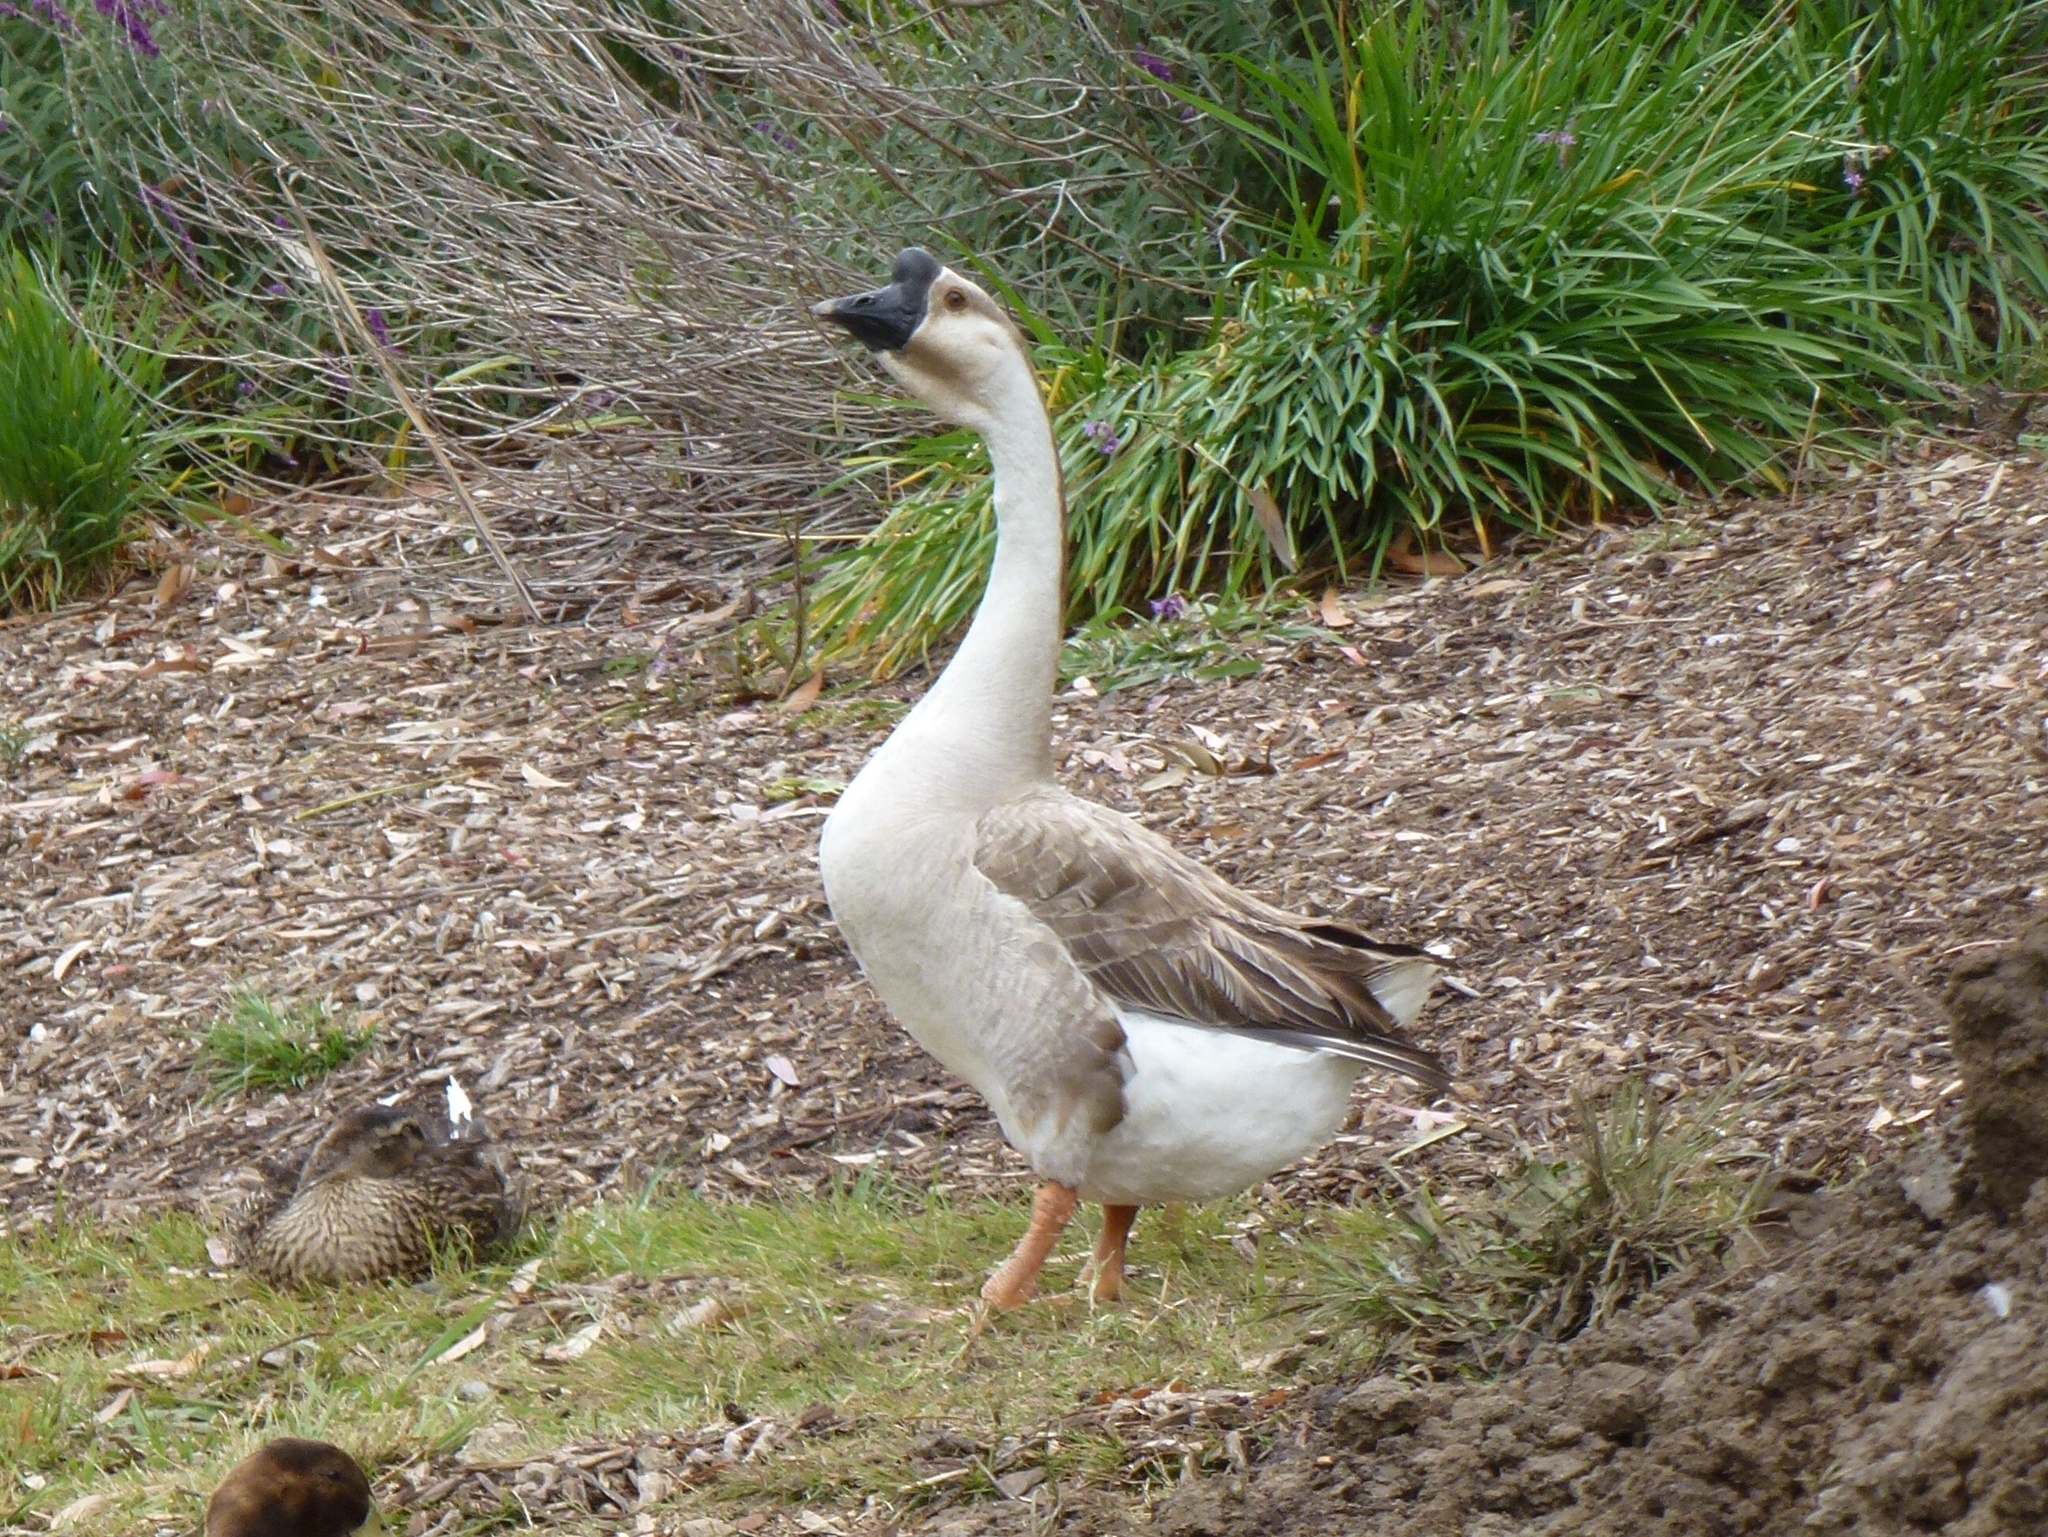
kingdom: Animalia
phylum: Chordata
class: Aves
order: Anseriformes
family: Anatidae
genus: Anser
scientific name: Anser cygnoides
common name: Swan goose
